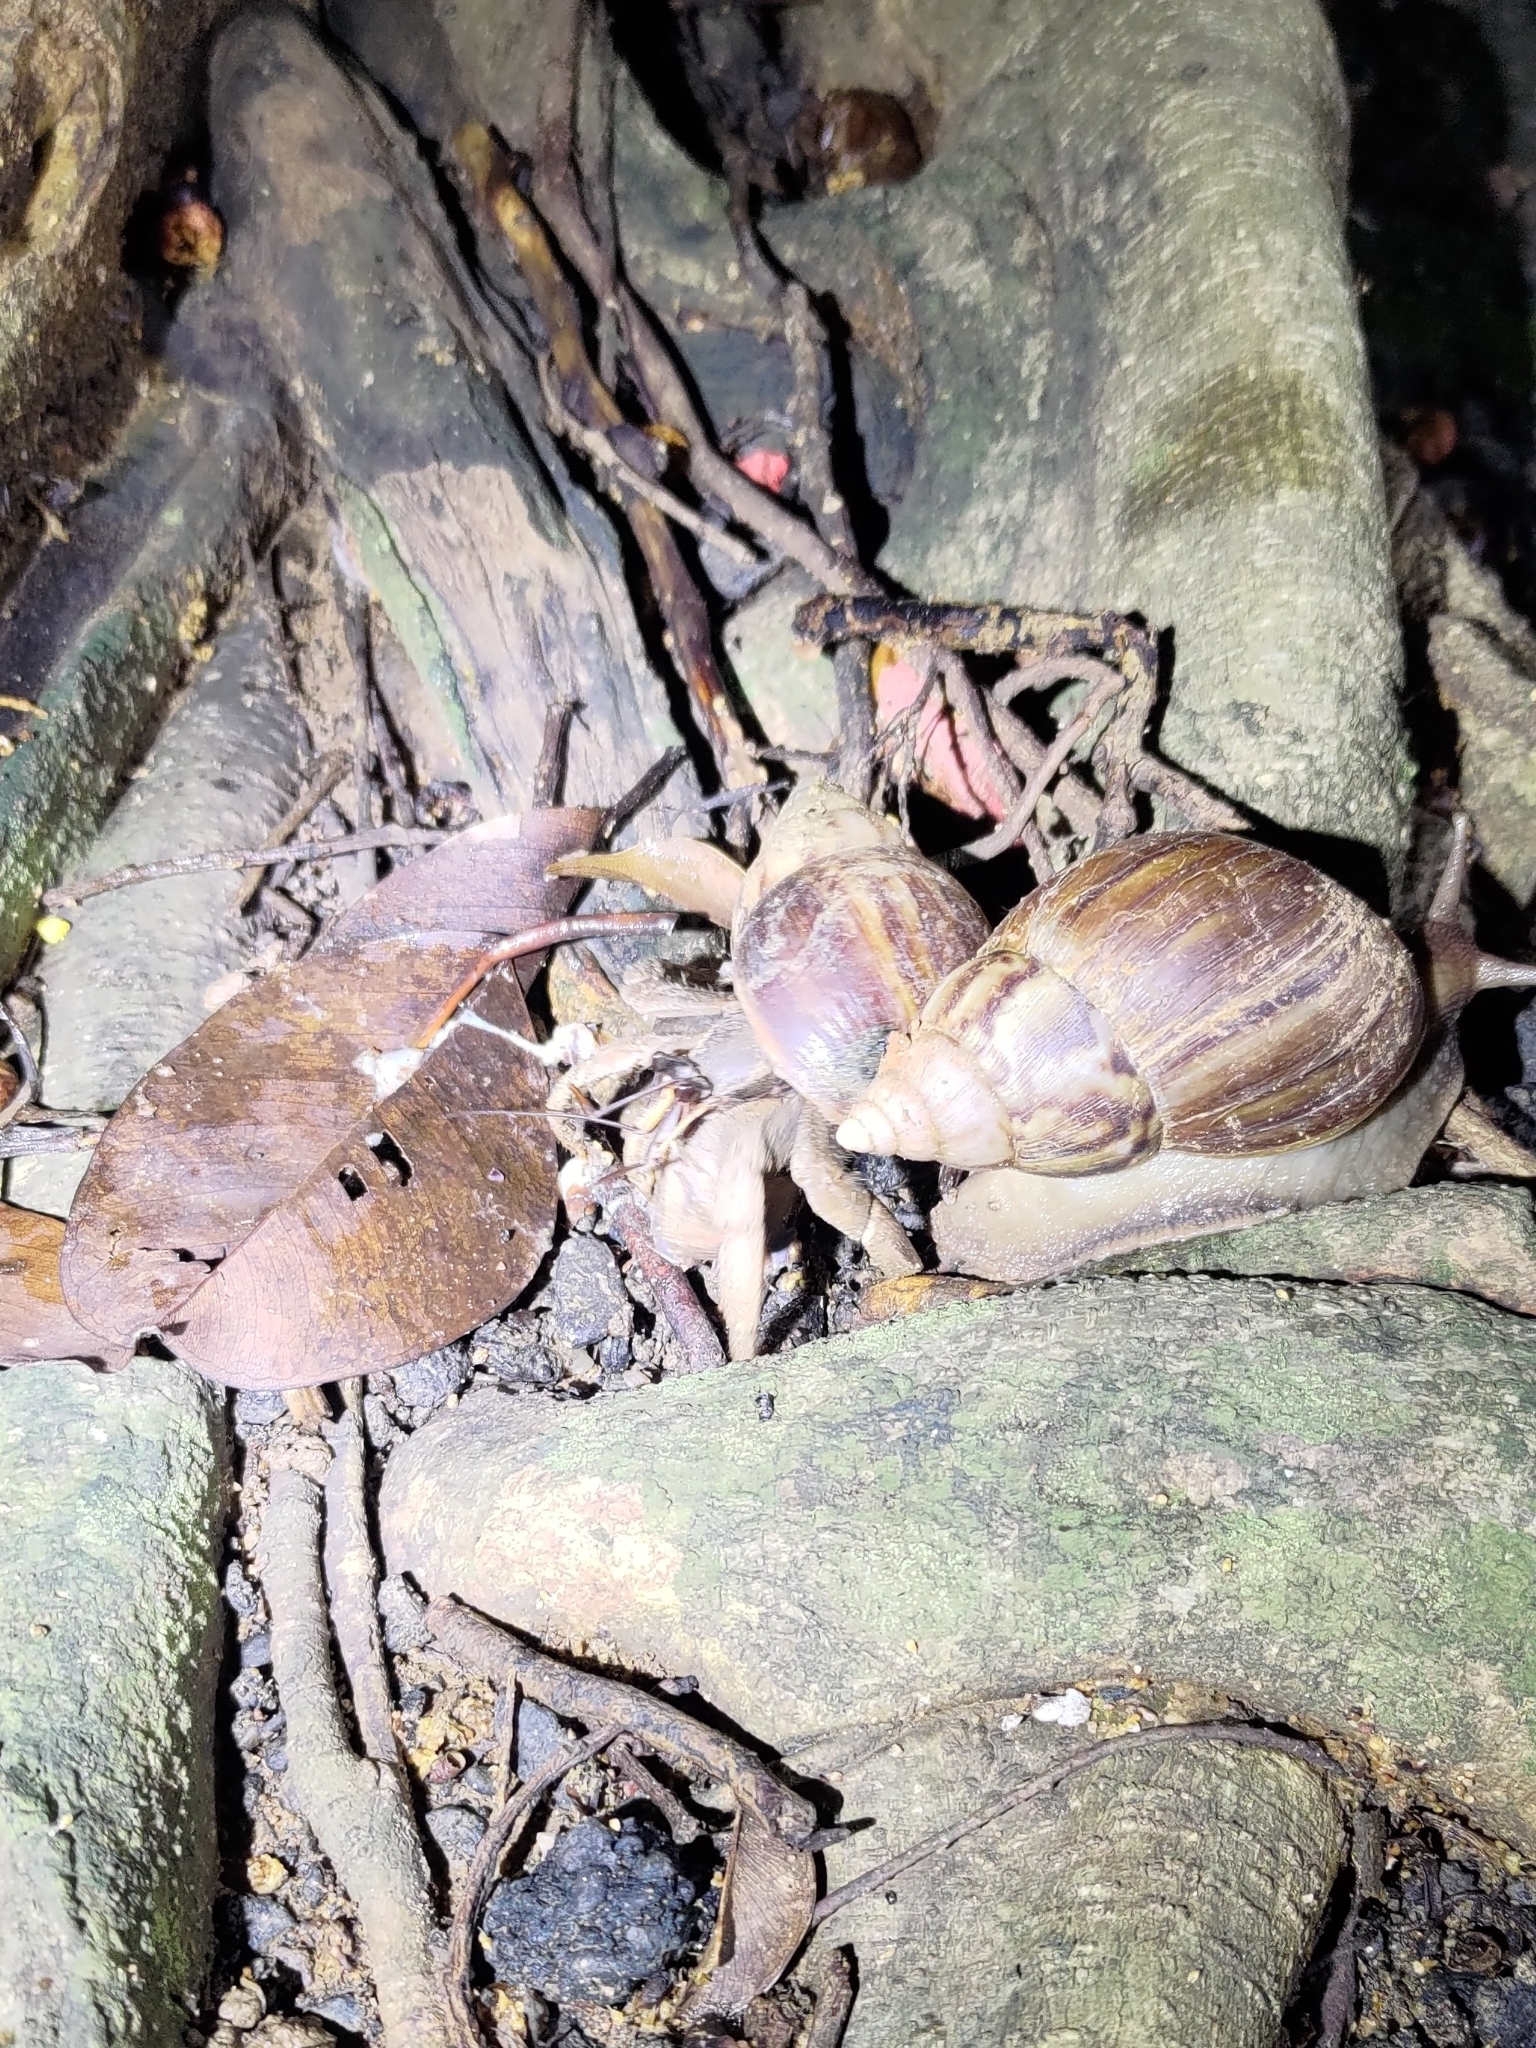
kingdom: Animalia
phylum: Arthropoda
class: Malacostraca
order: Decapoda
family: Coenobitidae
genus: Coenobita
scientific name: Coenobita cavipes
